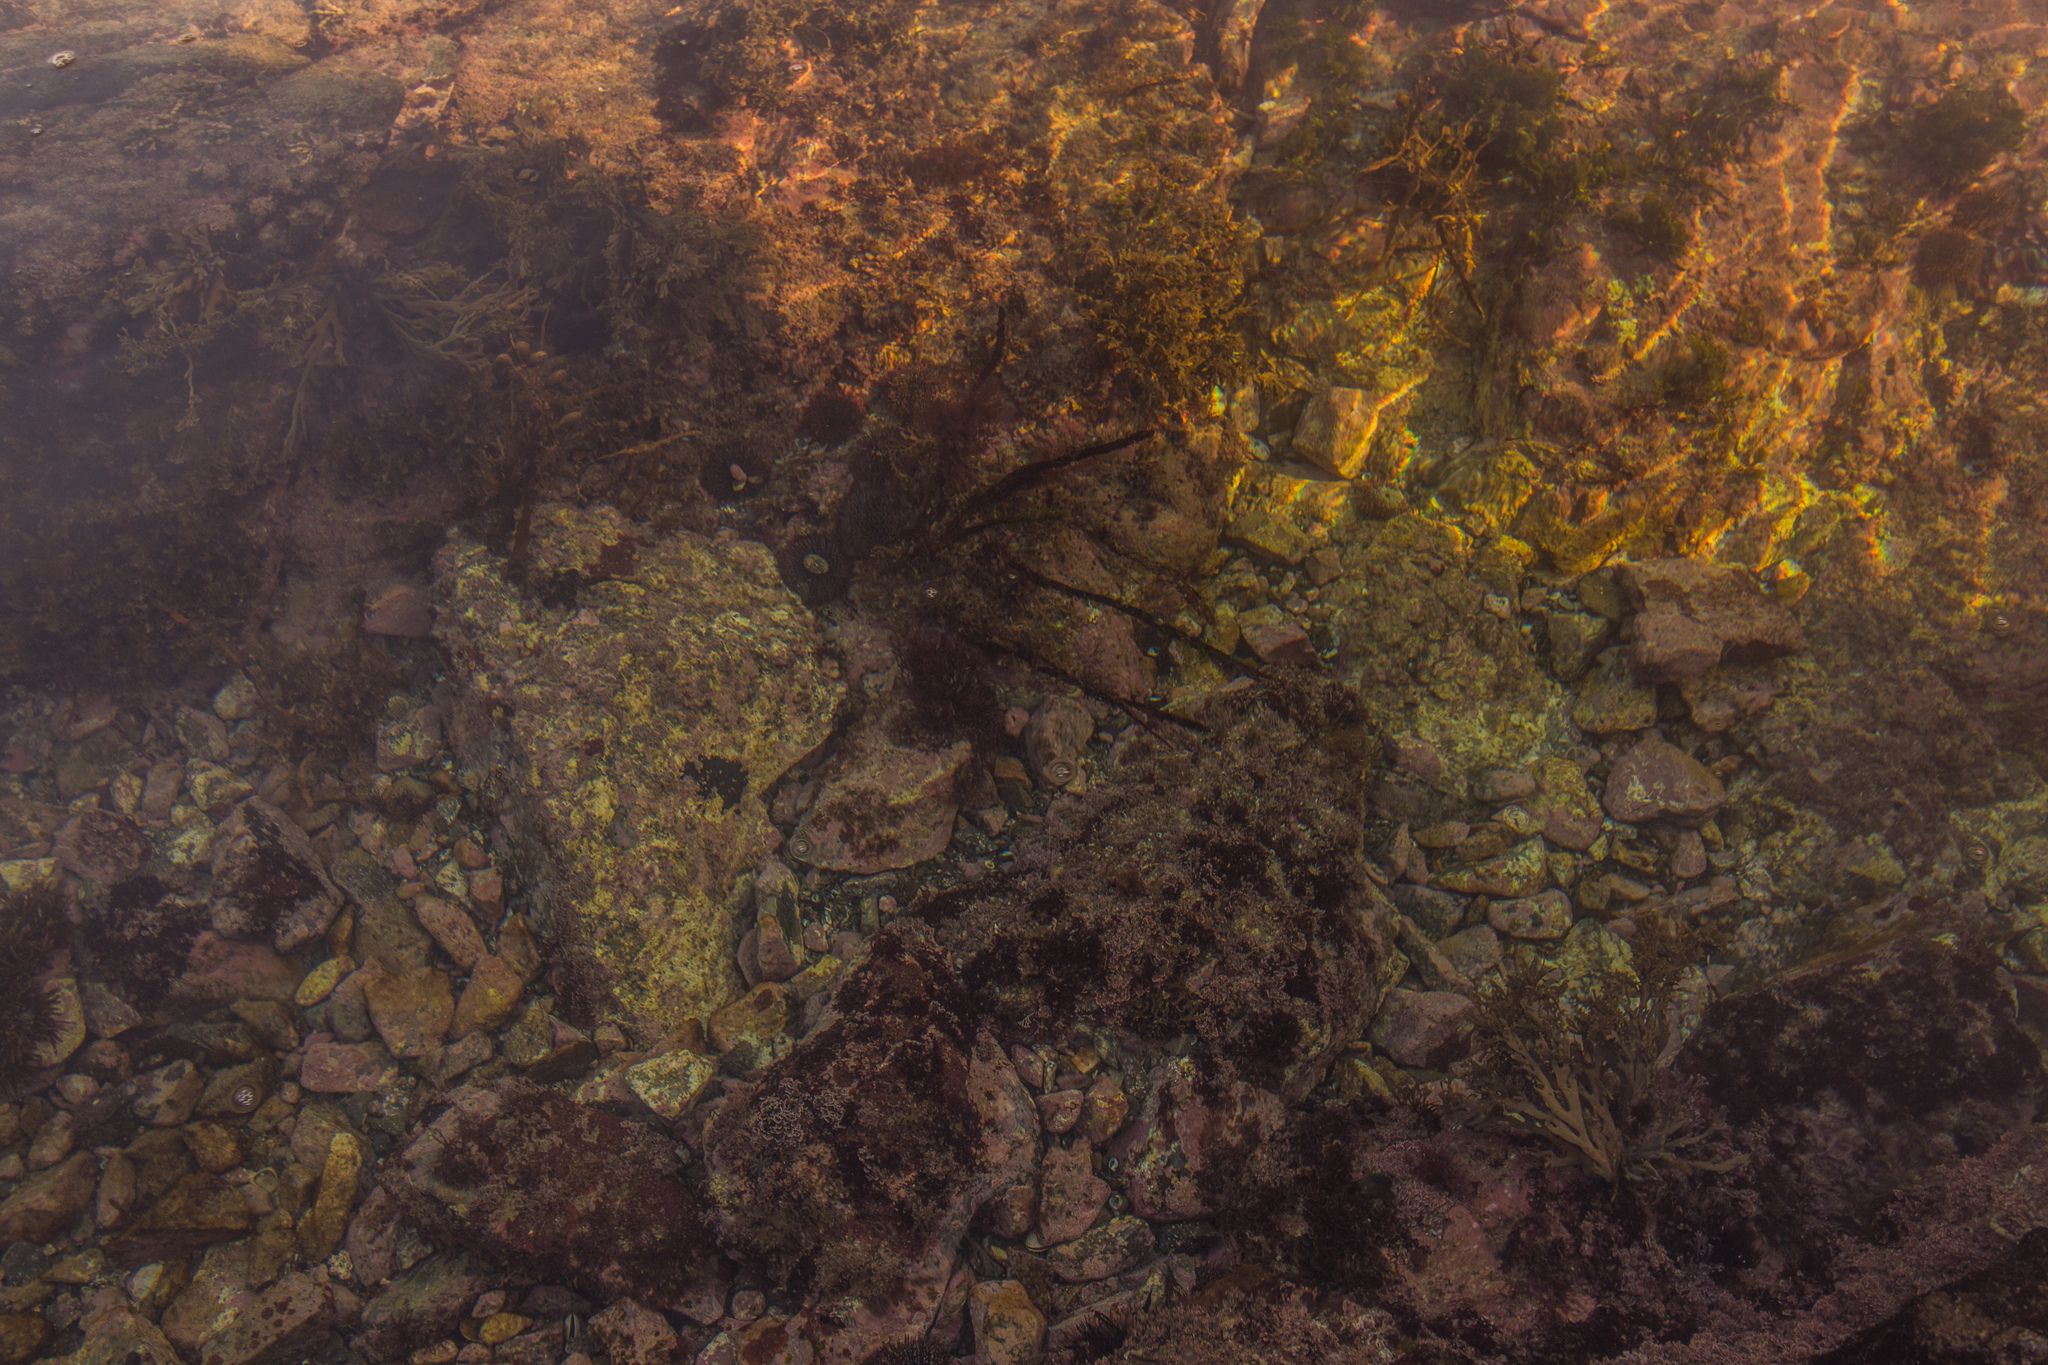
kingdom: Animalia
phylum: Echinodermata
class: Echinoidea
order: Camarodonta
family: Echinometridae
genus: Evechinus
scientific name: Evechinus chloroticus
